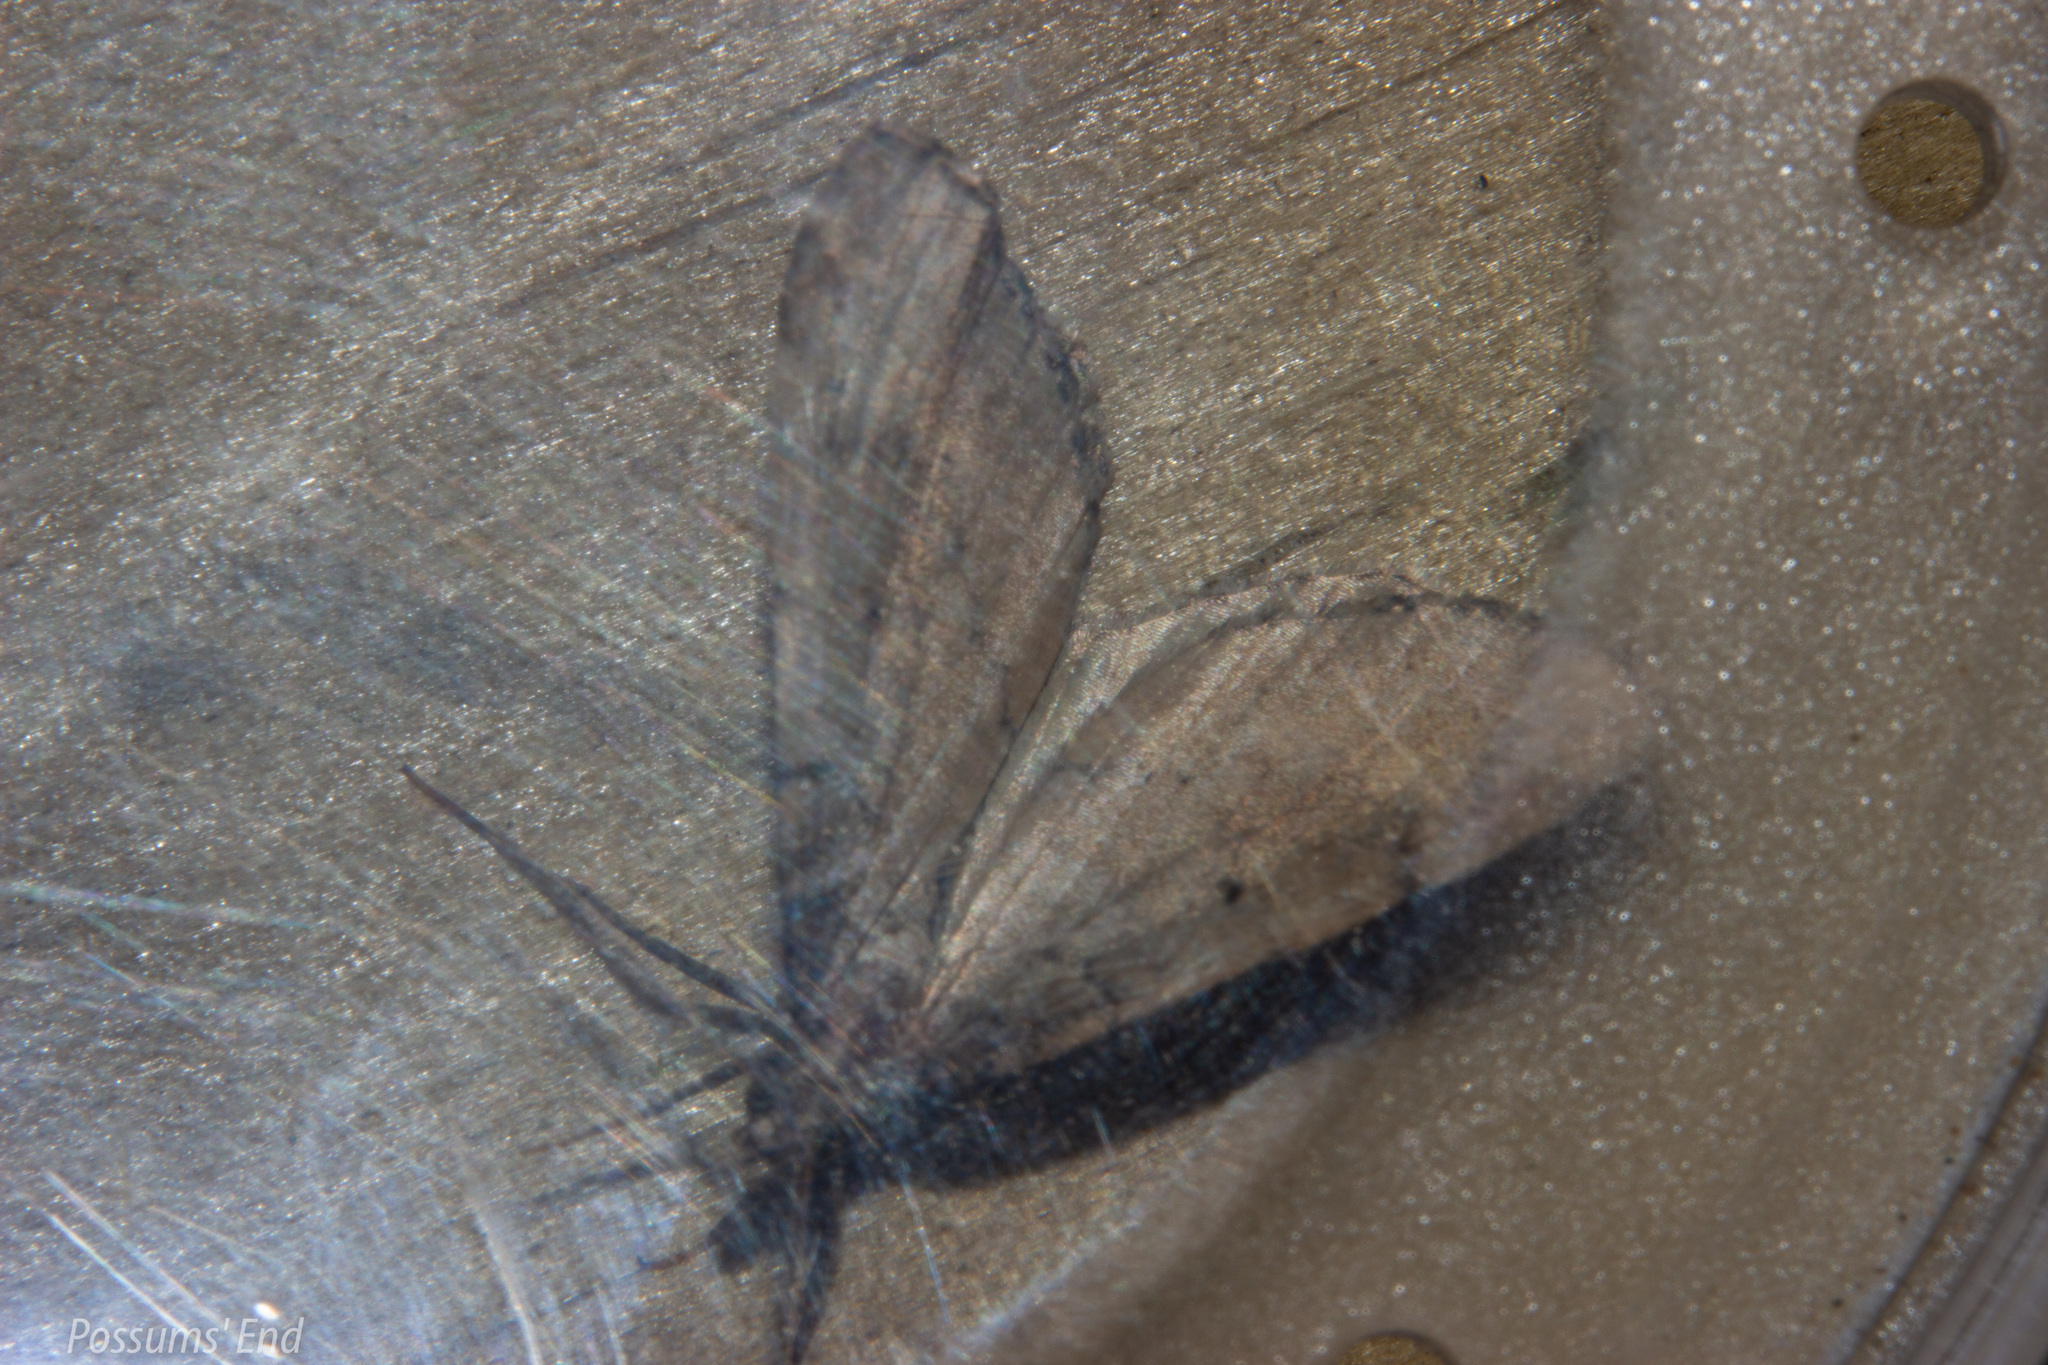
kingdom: Animalia
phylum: Arthropoda
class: Insecta
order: Lepidoptera
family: Geometridae
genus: Asaphodes
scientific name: Asaphodes aegrota
